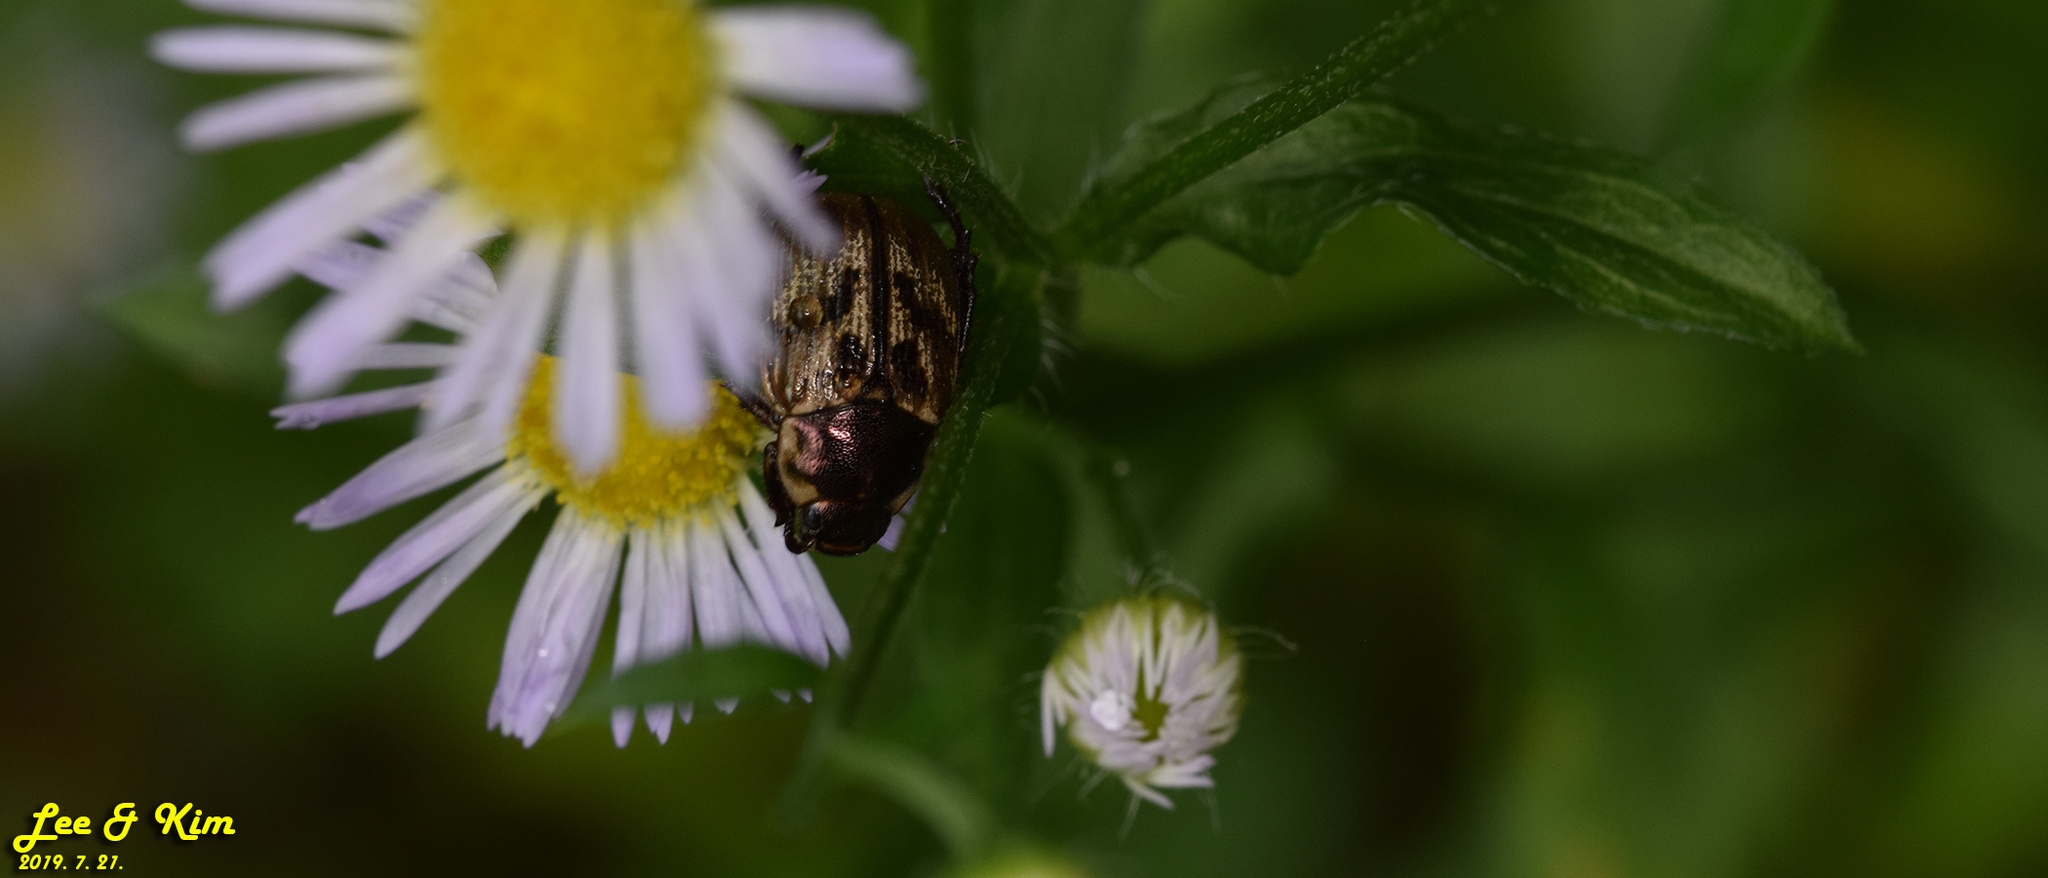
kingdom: Animalia
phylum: Arthropoda
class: Insecta
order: Coleoptera
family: Scarabaeidae
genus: Exomala
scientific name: Exomala orientalis
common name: Oriental beetle
